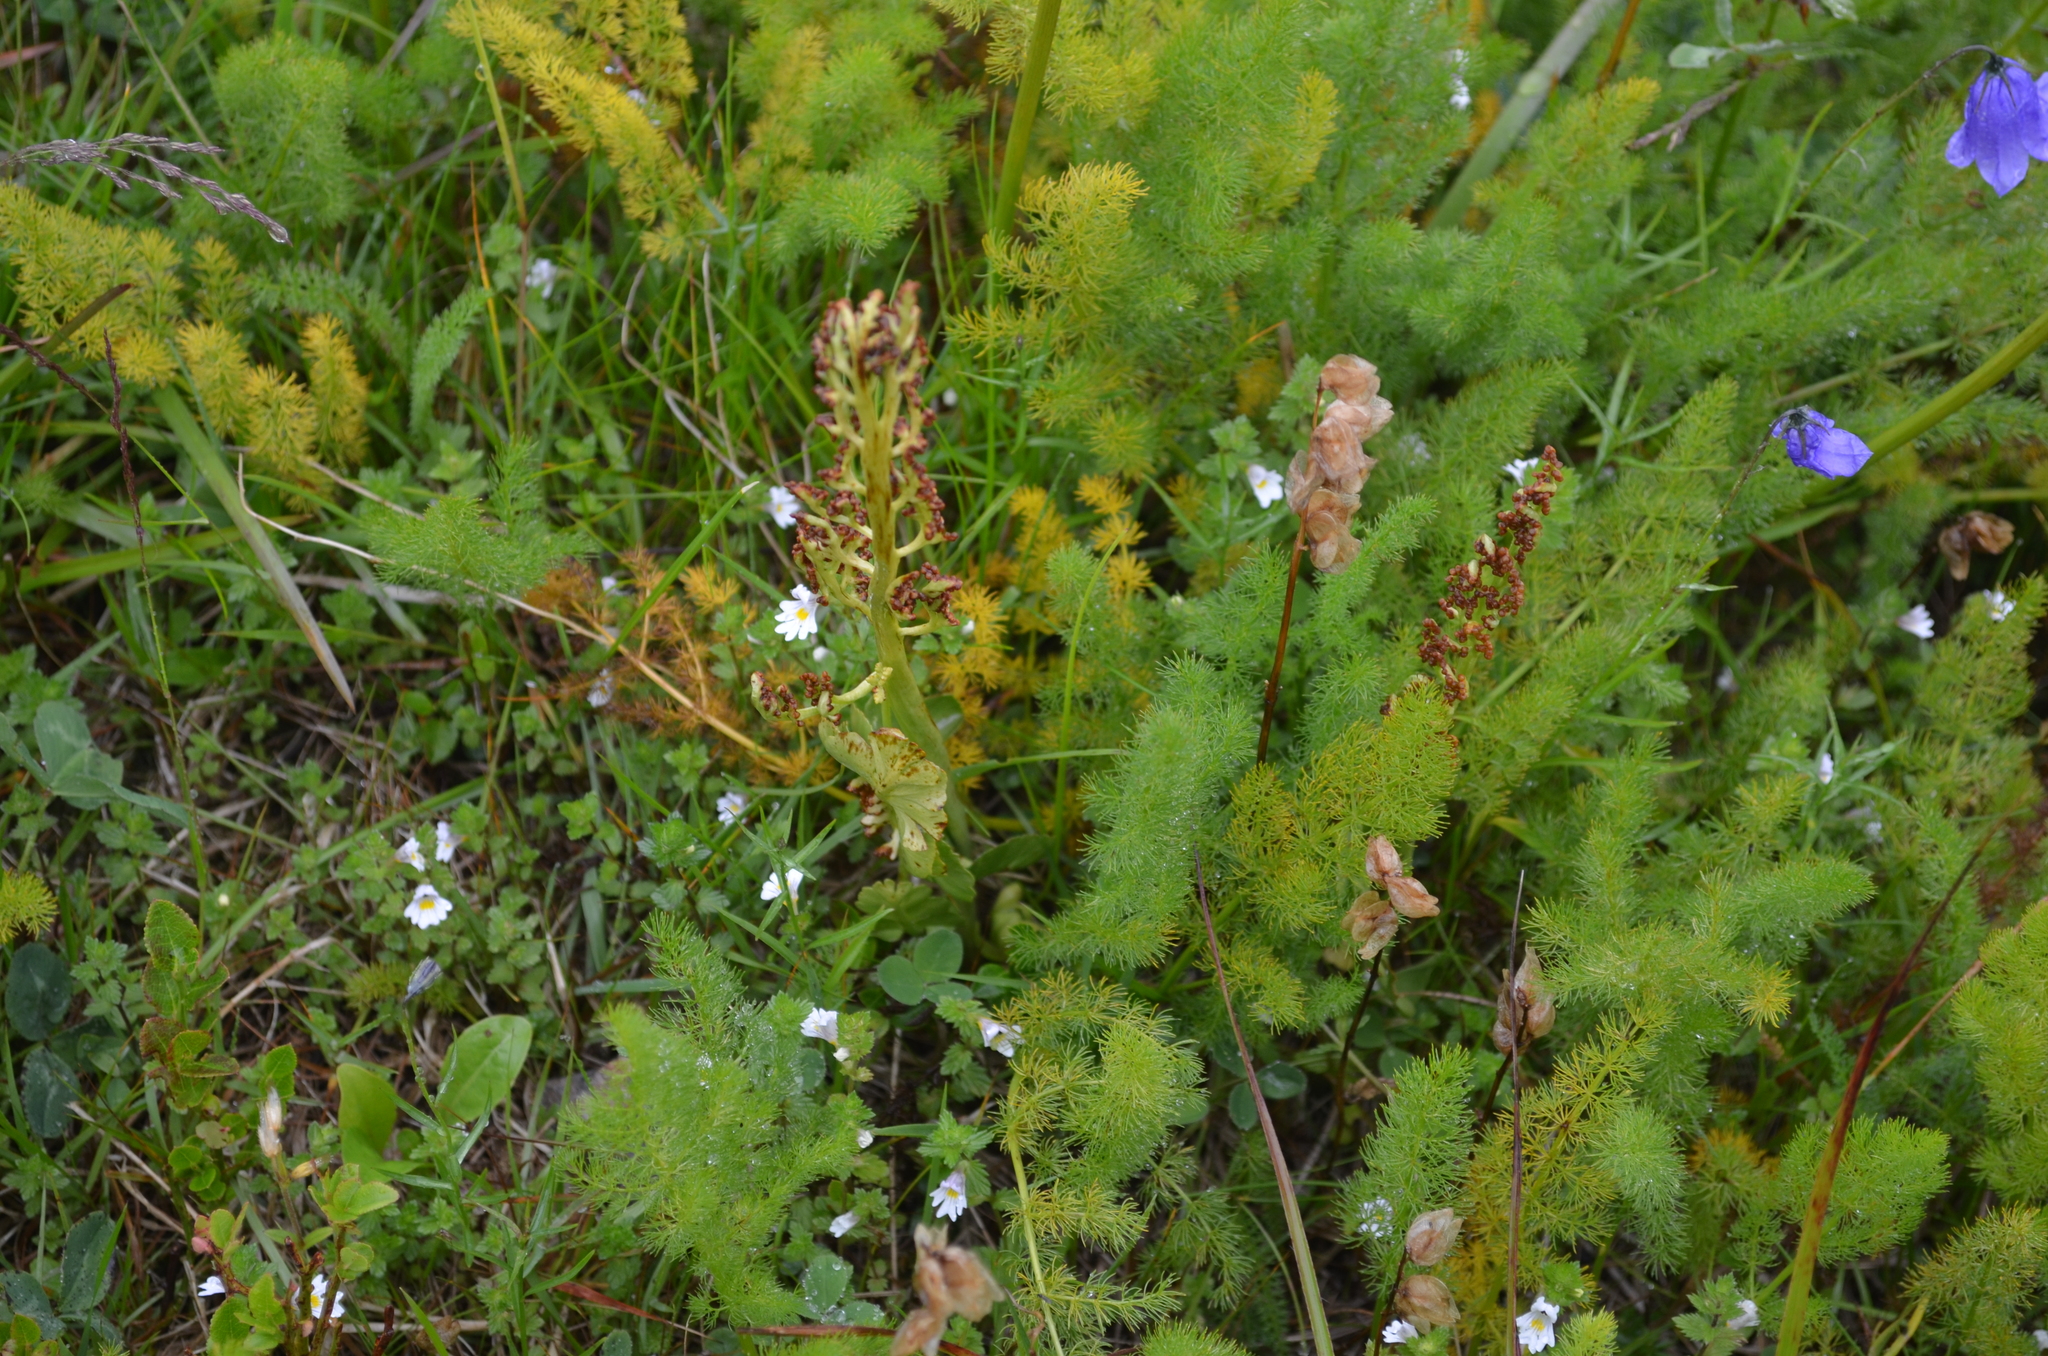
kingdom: Plantae
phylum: Tracheophyta
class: Polypodiopsida
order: Ophioglossales
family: Ophioglossaceae
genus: Botrychium
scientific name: Botrychium lunaria
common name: Moonwort
